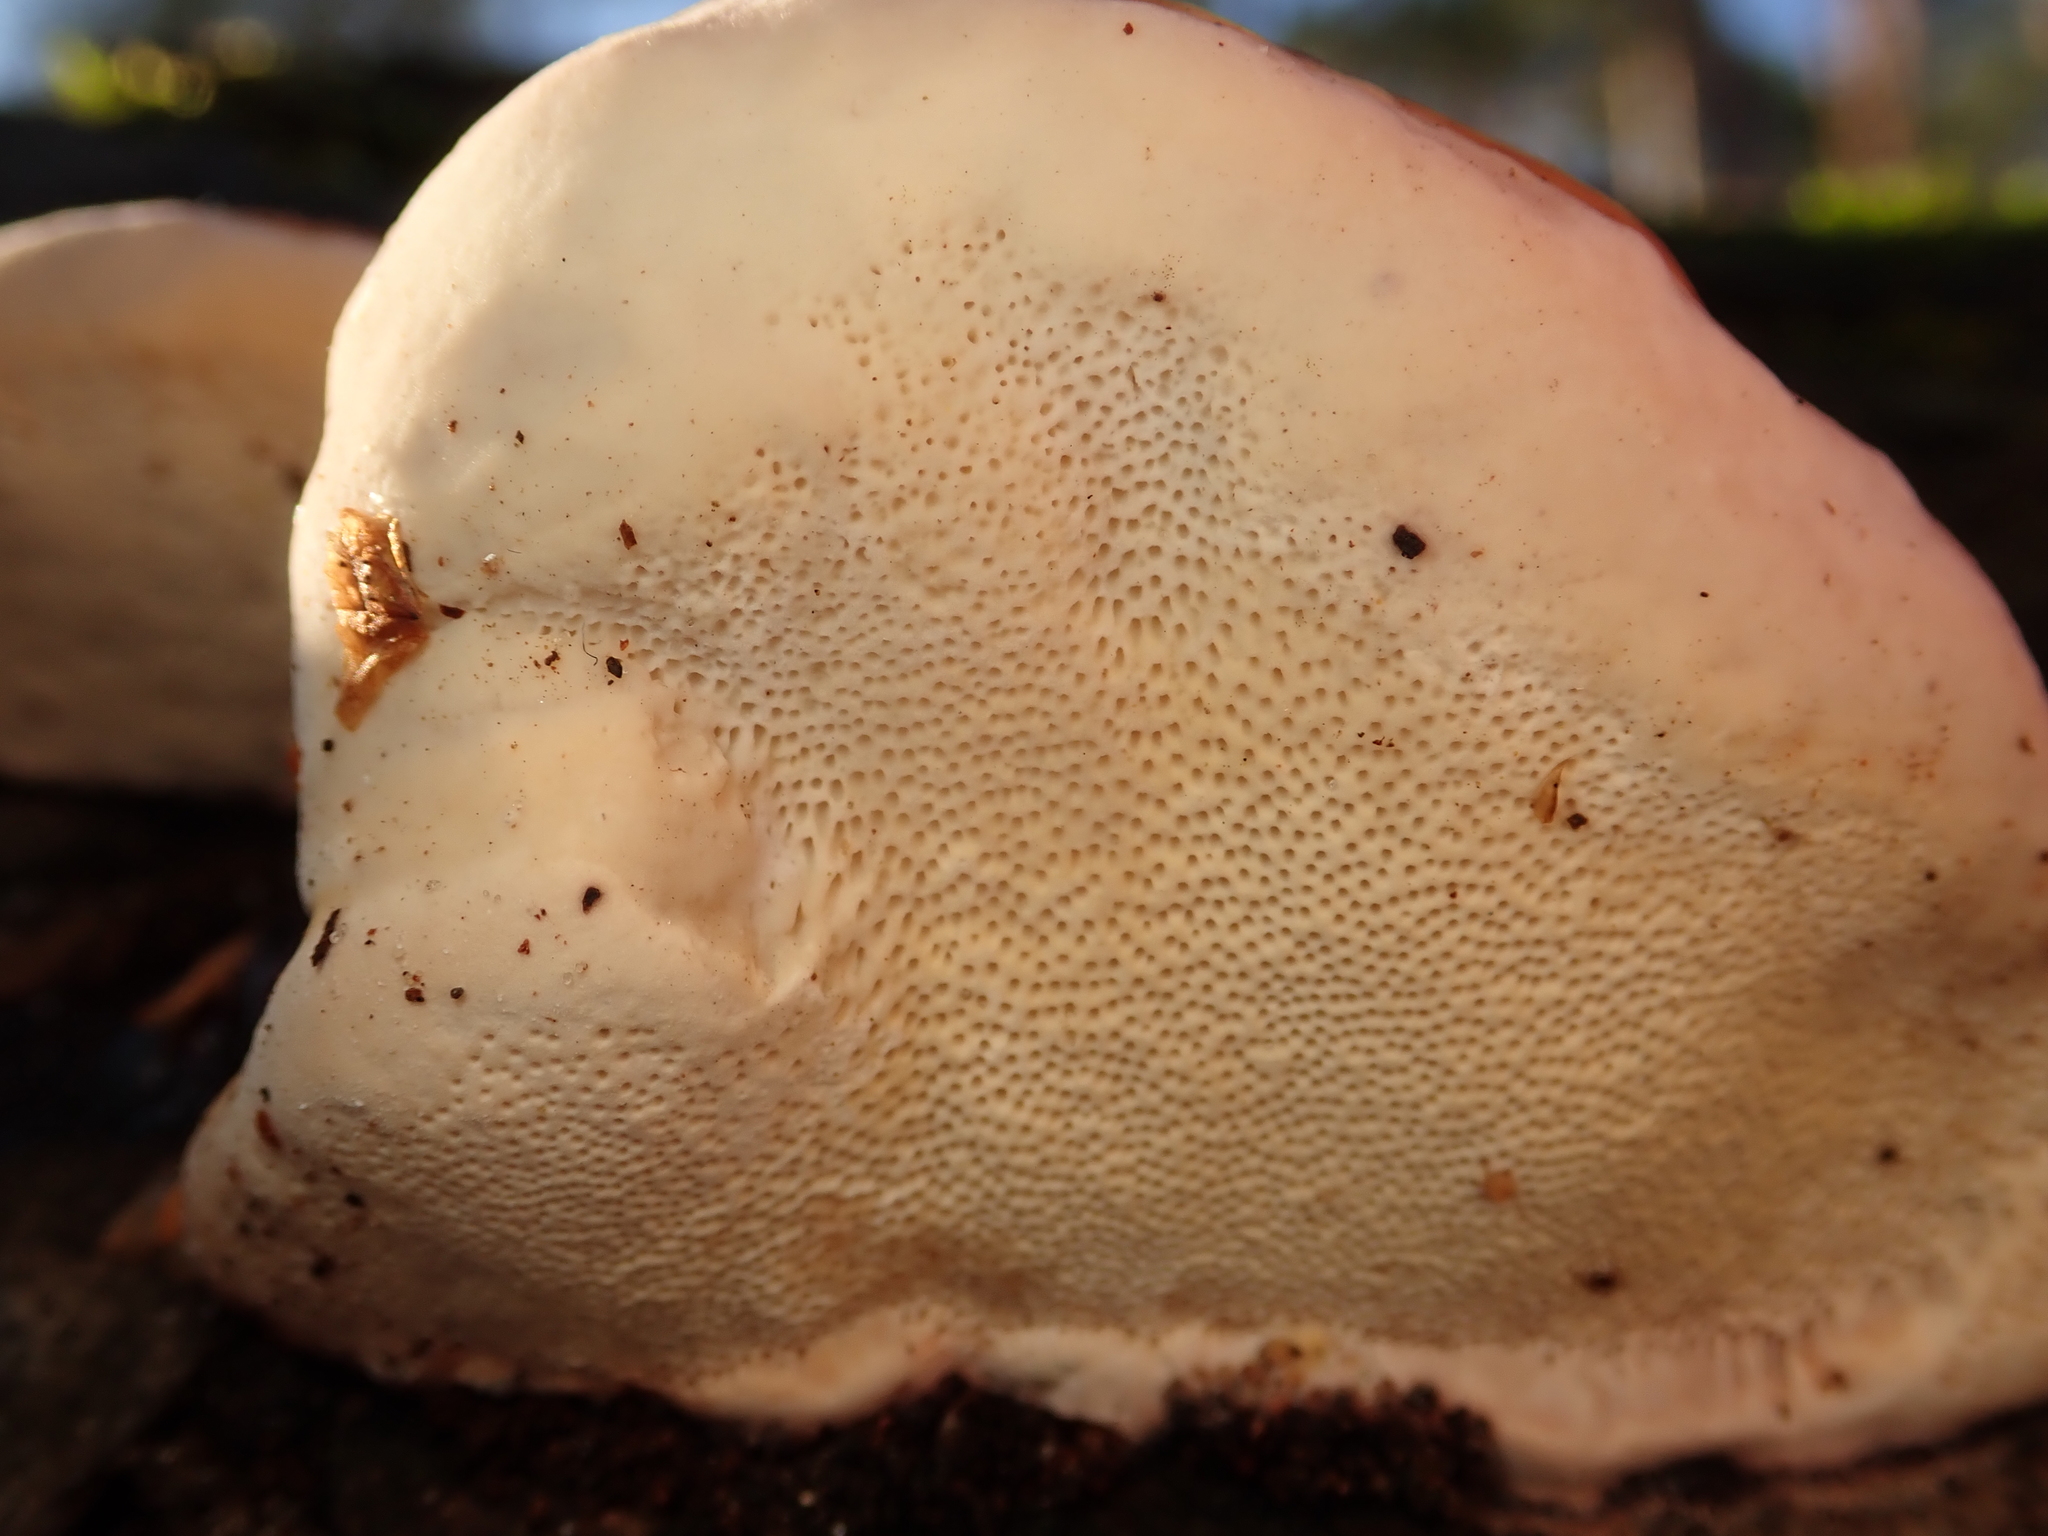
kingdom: Fungi
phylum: Basidiomycota
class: Agaricomycetes
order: Polyporales
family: Fomitopsidaceae
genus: Fomitopsis
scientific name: Fomitopsis pinicola
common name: Red-belted bracket
